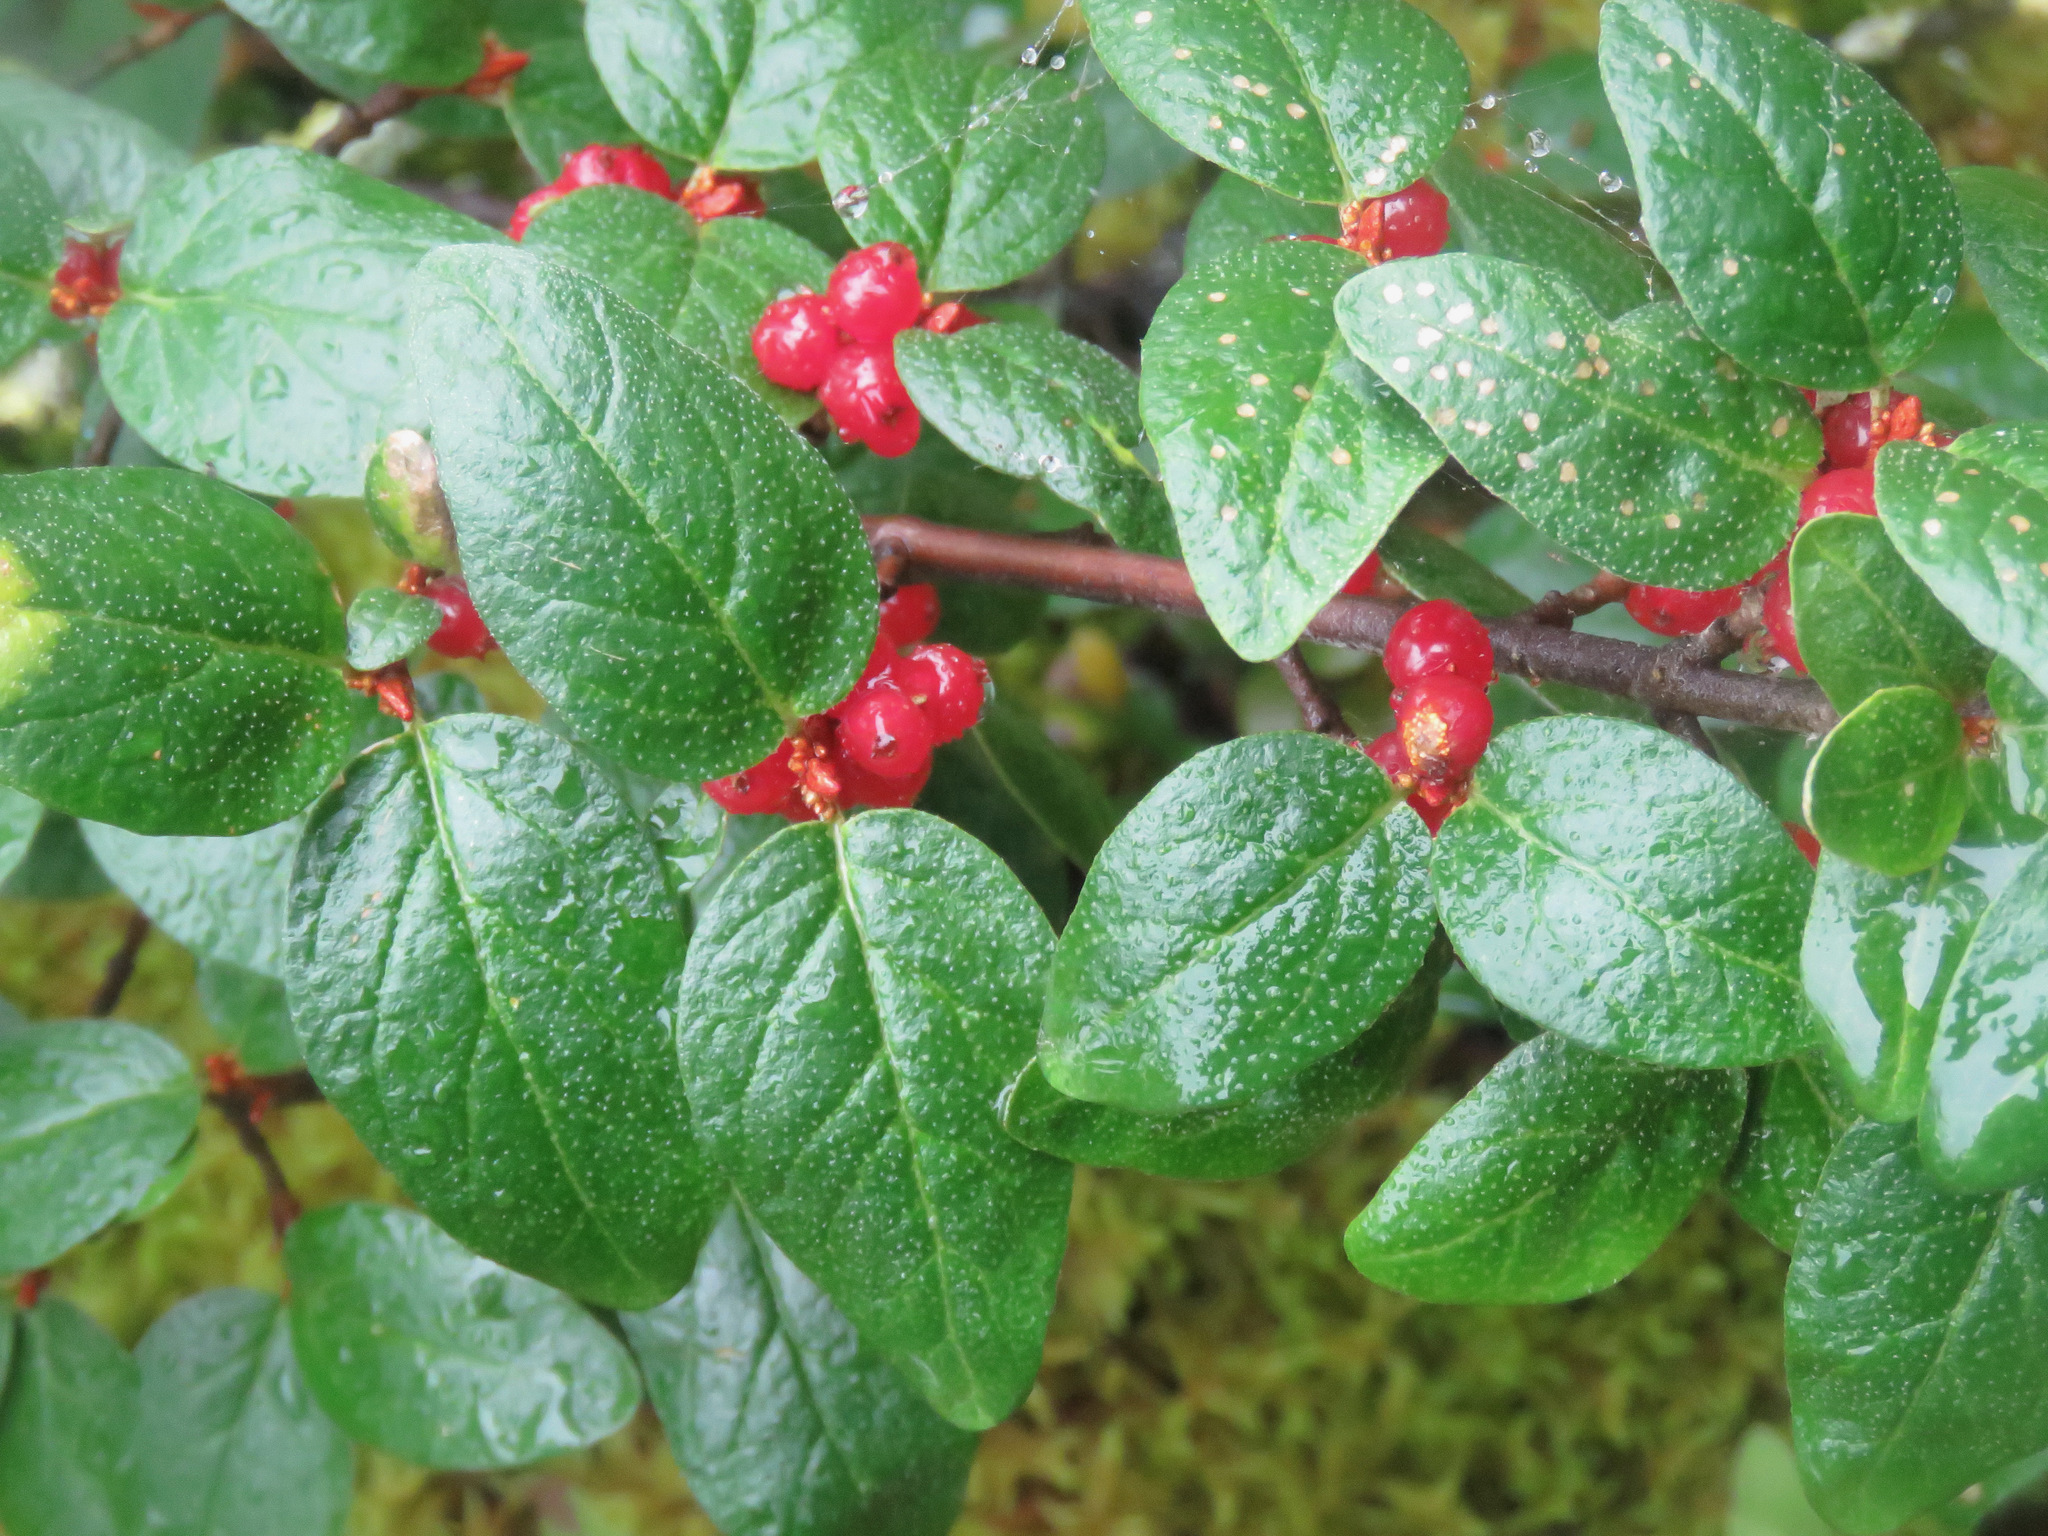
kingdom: Plantae
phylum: Tracheophyta
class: Magnoliopsida
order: Rosales
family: Elaeagnaceae
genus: Shepherdia
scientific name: Shepherdia canadensis
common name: Soapberry
